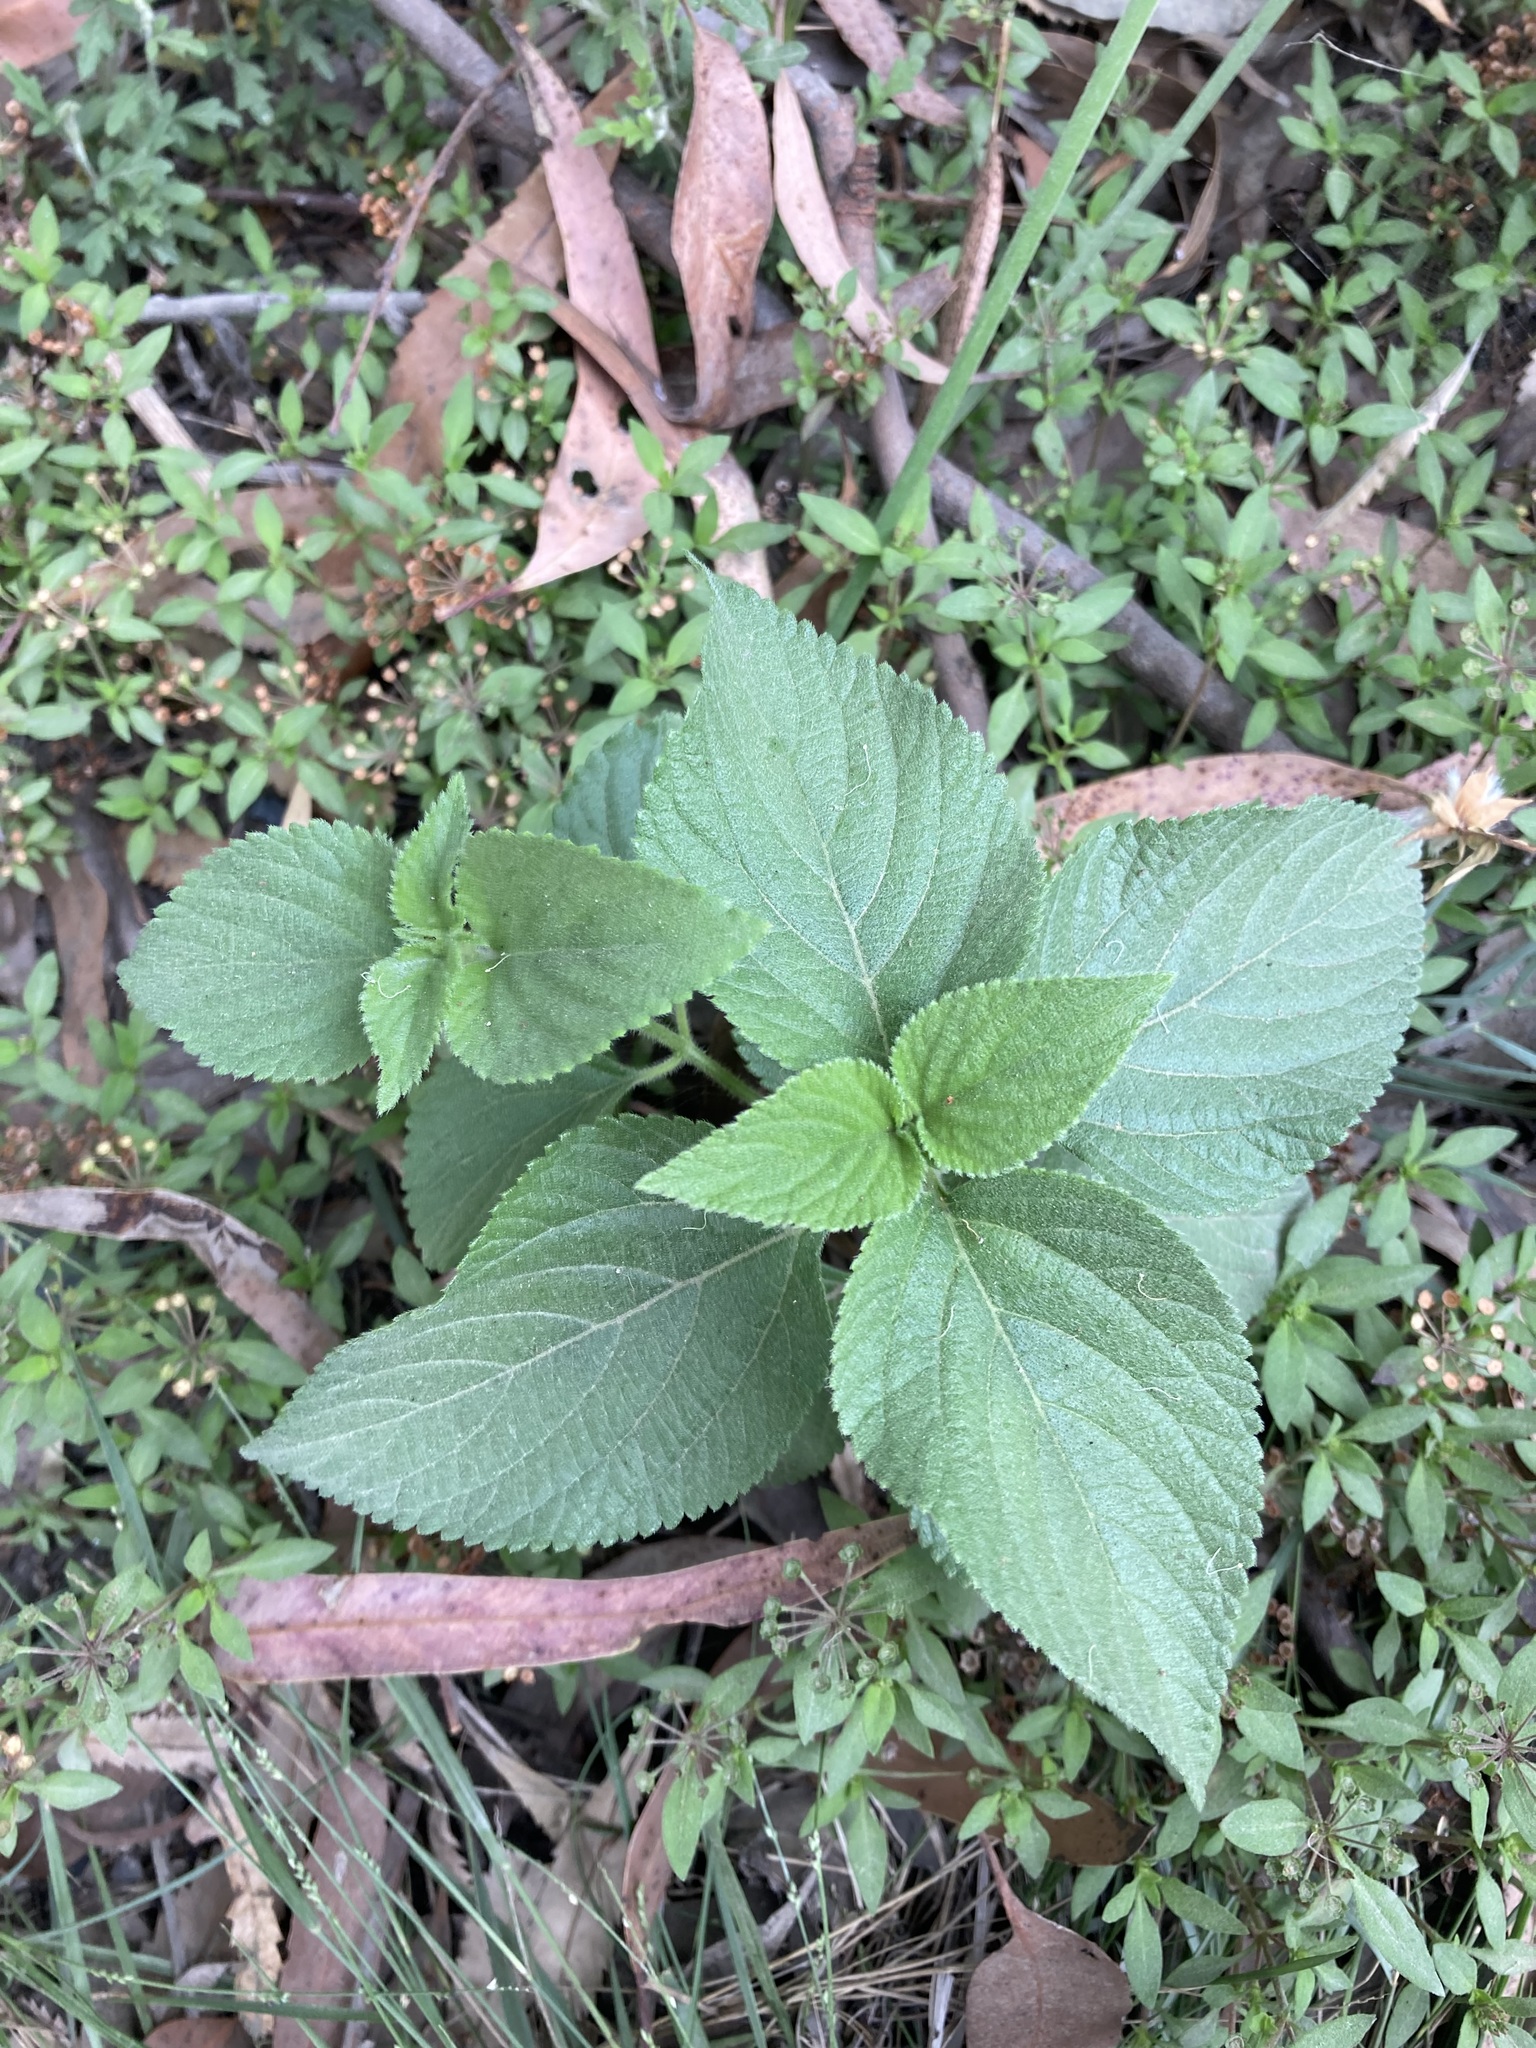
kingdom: Plantae
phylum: Tracheophyta
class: Magnoliopsida
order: Lamiales
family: Verbenaceae
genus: Lantana
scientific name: Lantana camara
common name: Lantana
